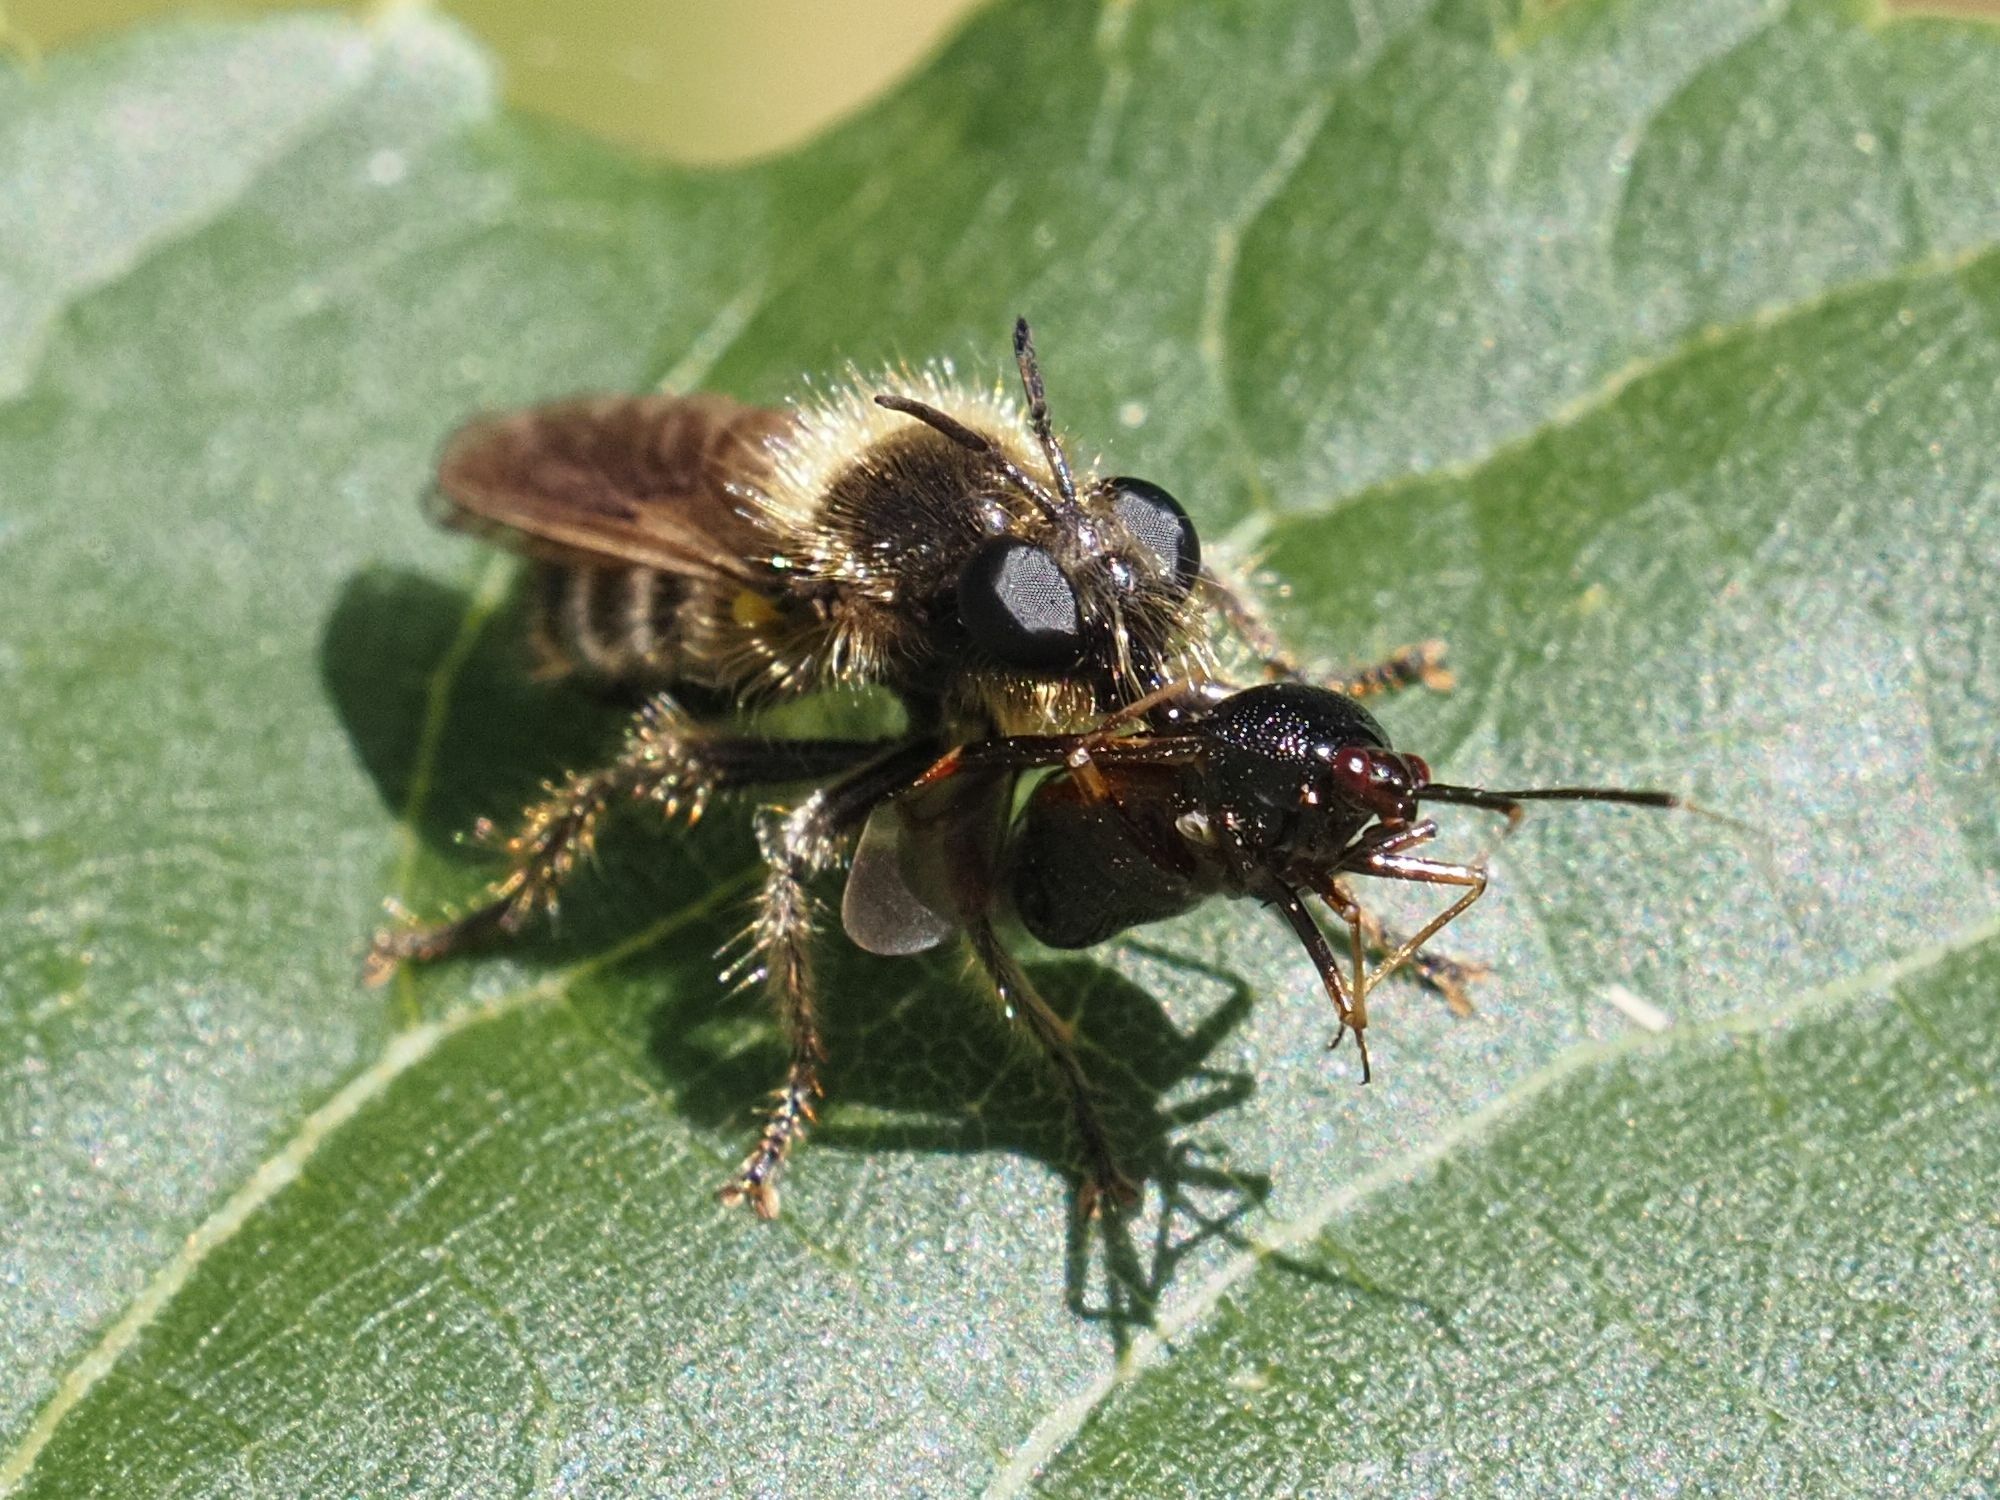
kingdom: Animalia
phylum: Arthropoda
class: Insecta
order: Diptera
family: Asilidae
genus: Lamyra
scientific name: Lamyra fuliginosa
